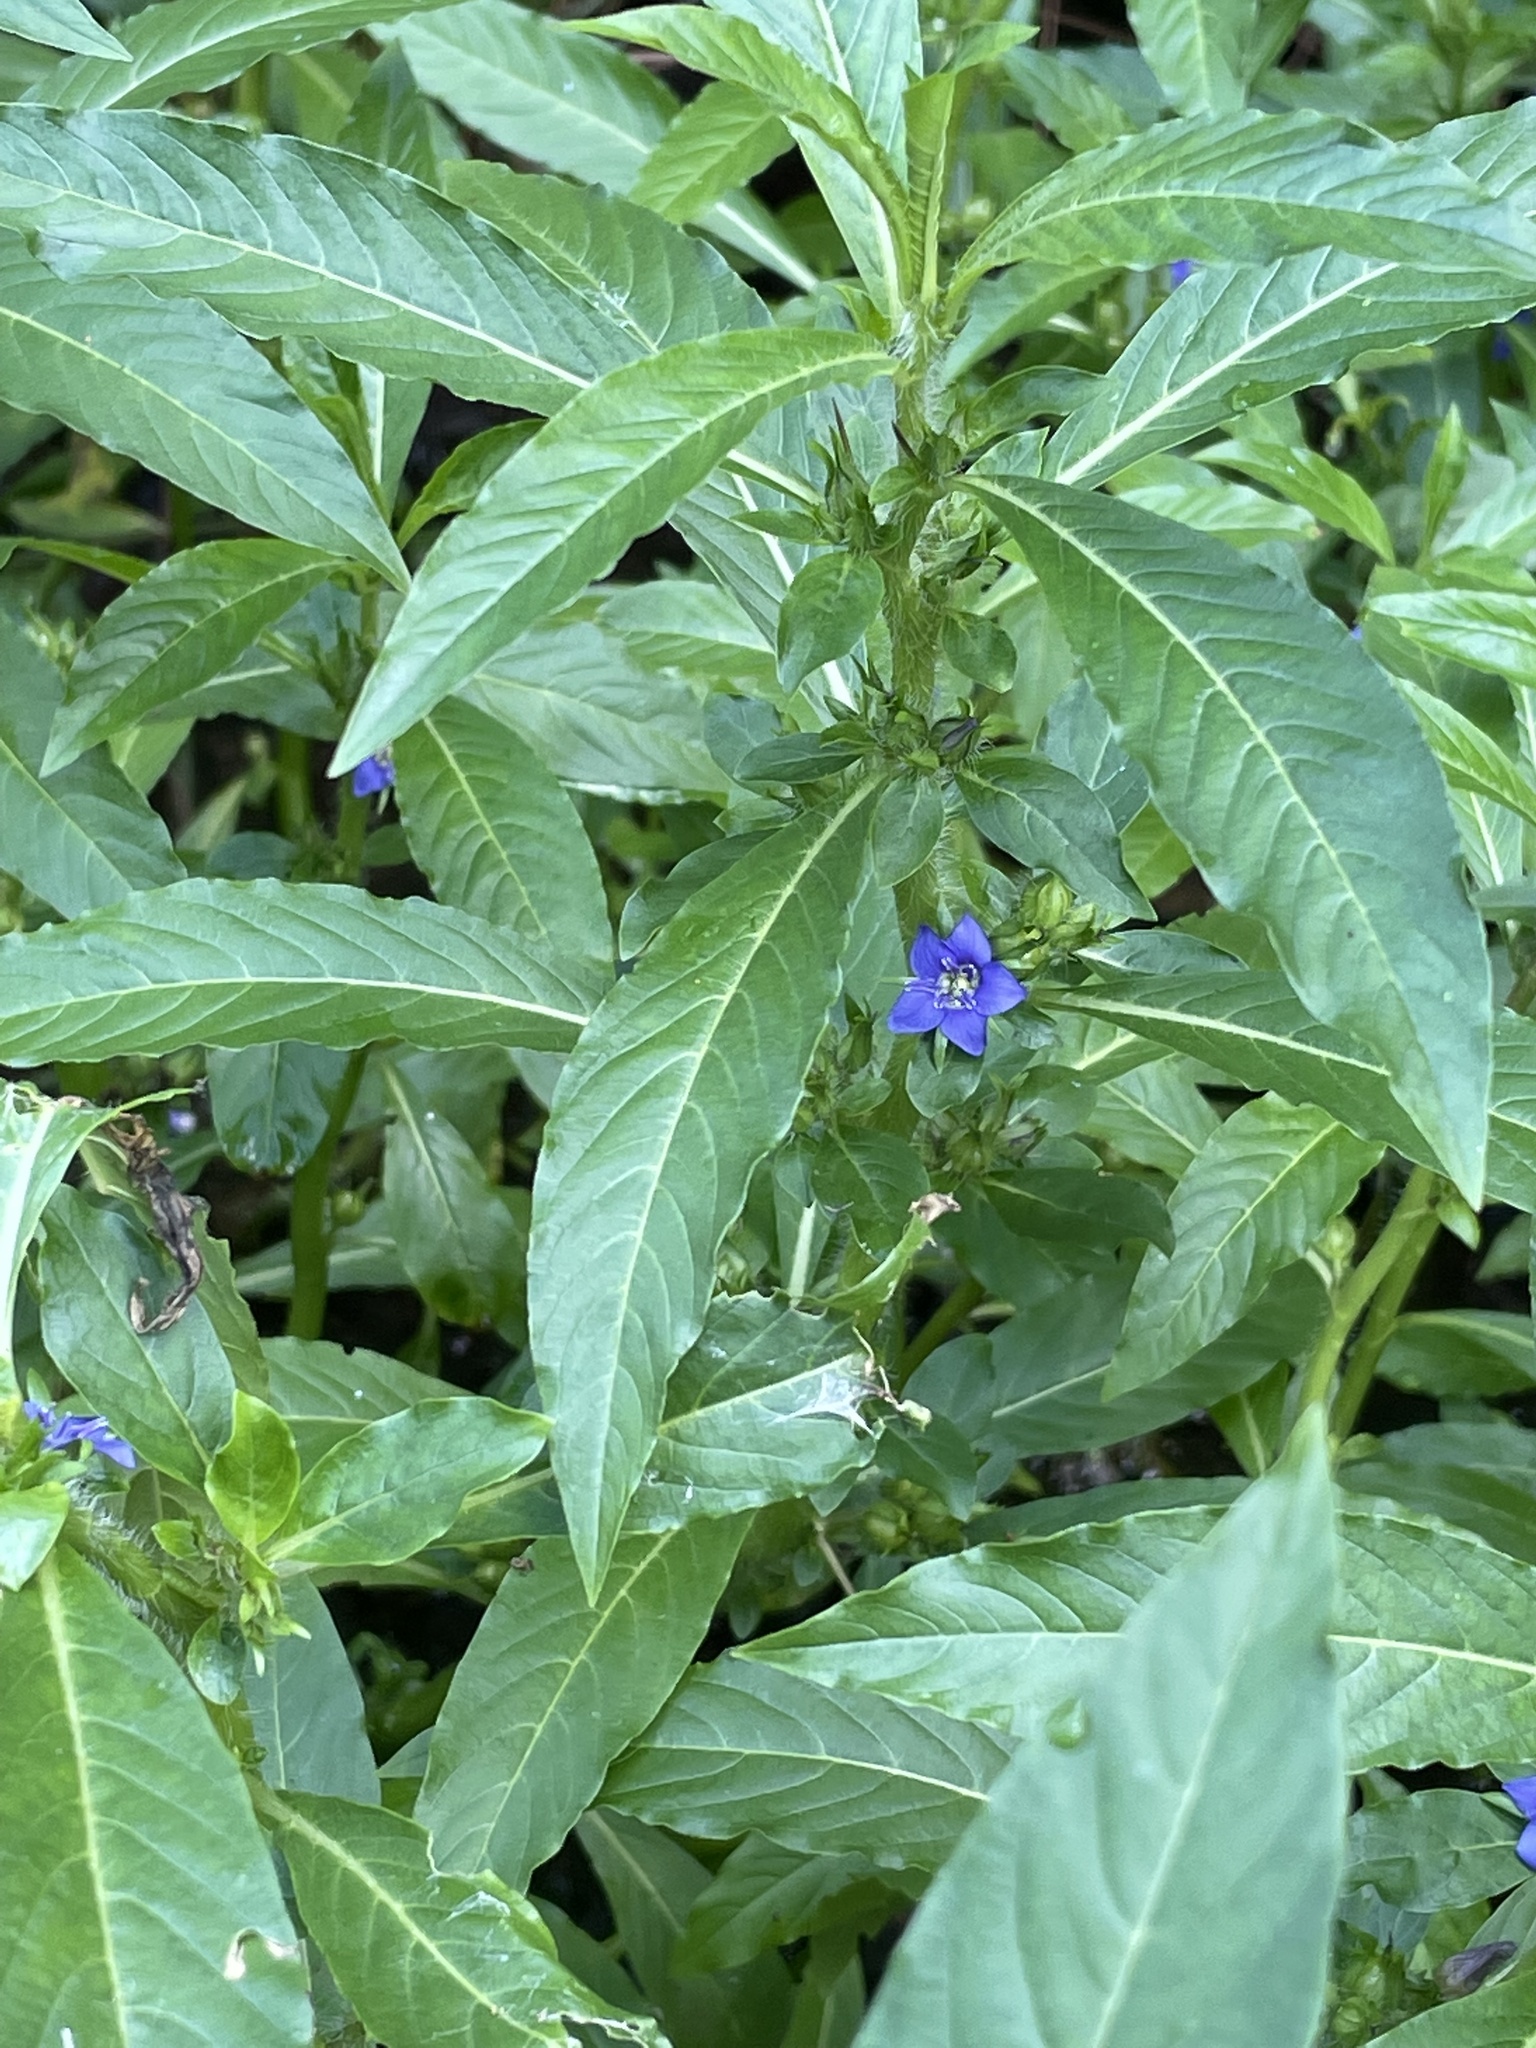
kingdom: Plantae
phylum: Tracheophyta
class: Magnoliopsida
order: Solanales
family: Hydroleaceae
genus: Hydrolea
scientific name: Hydrolea quadrivalvis
